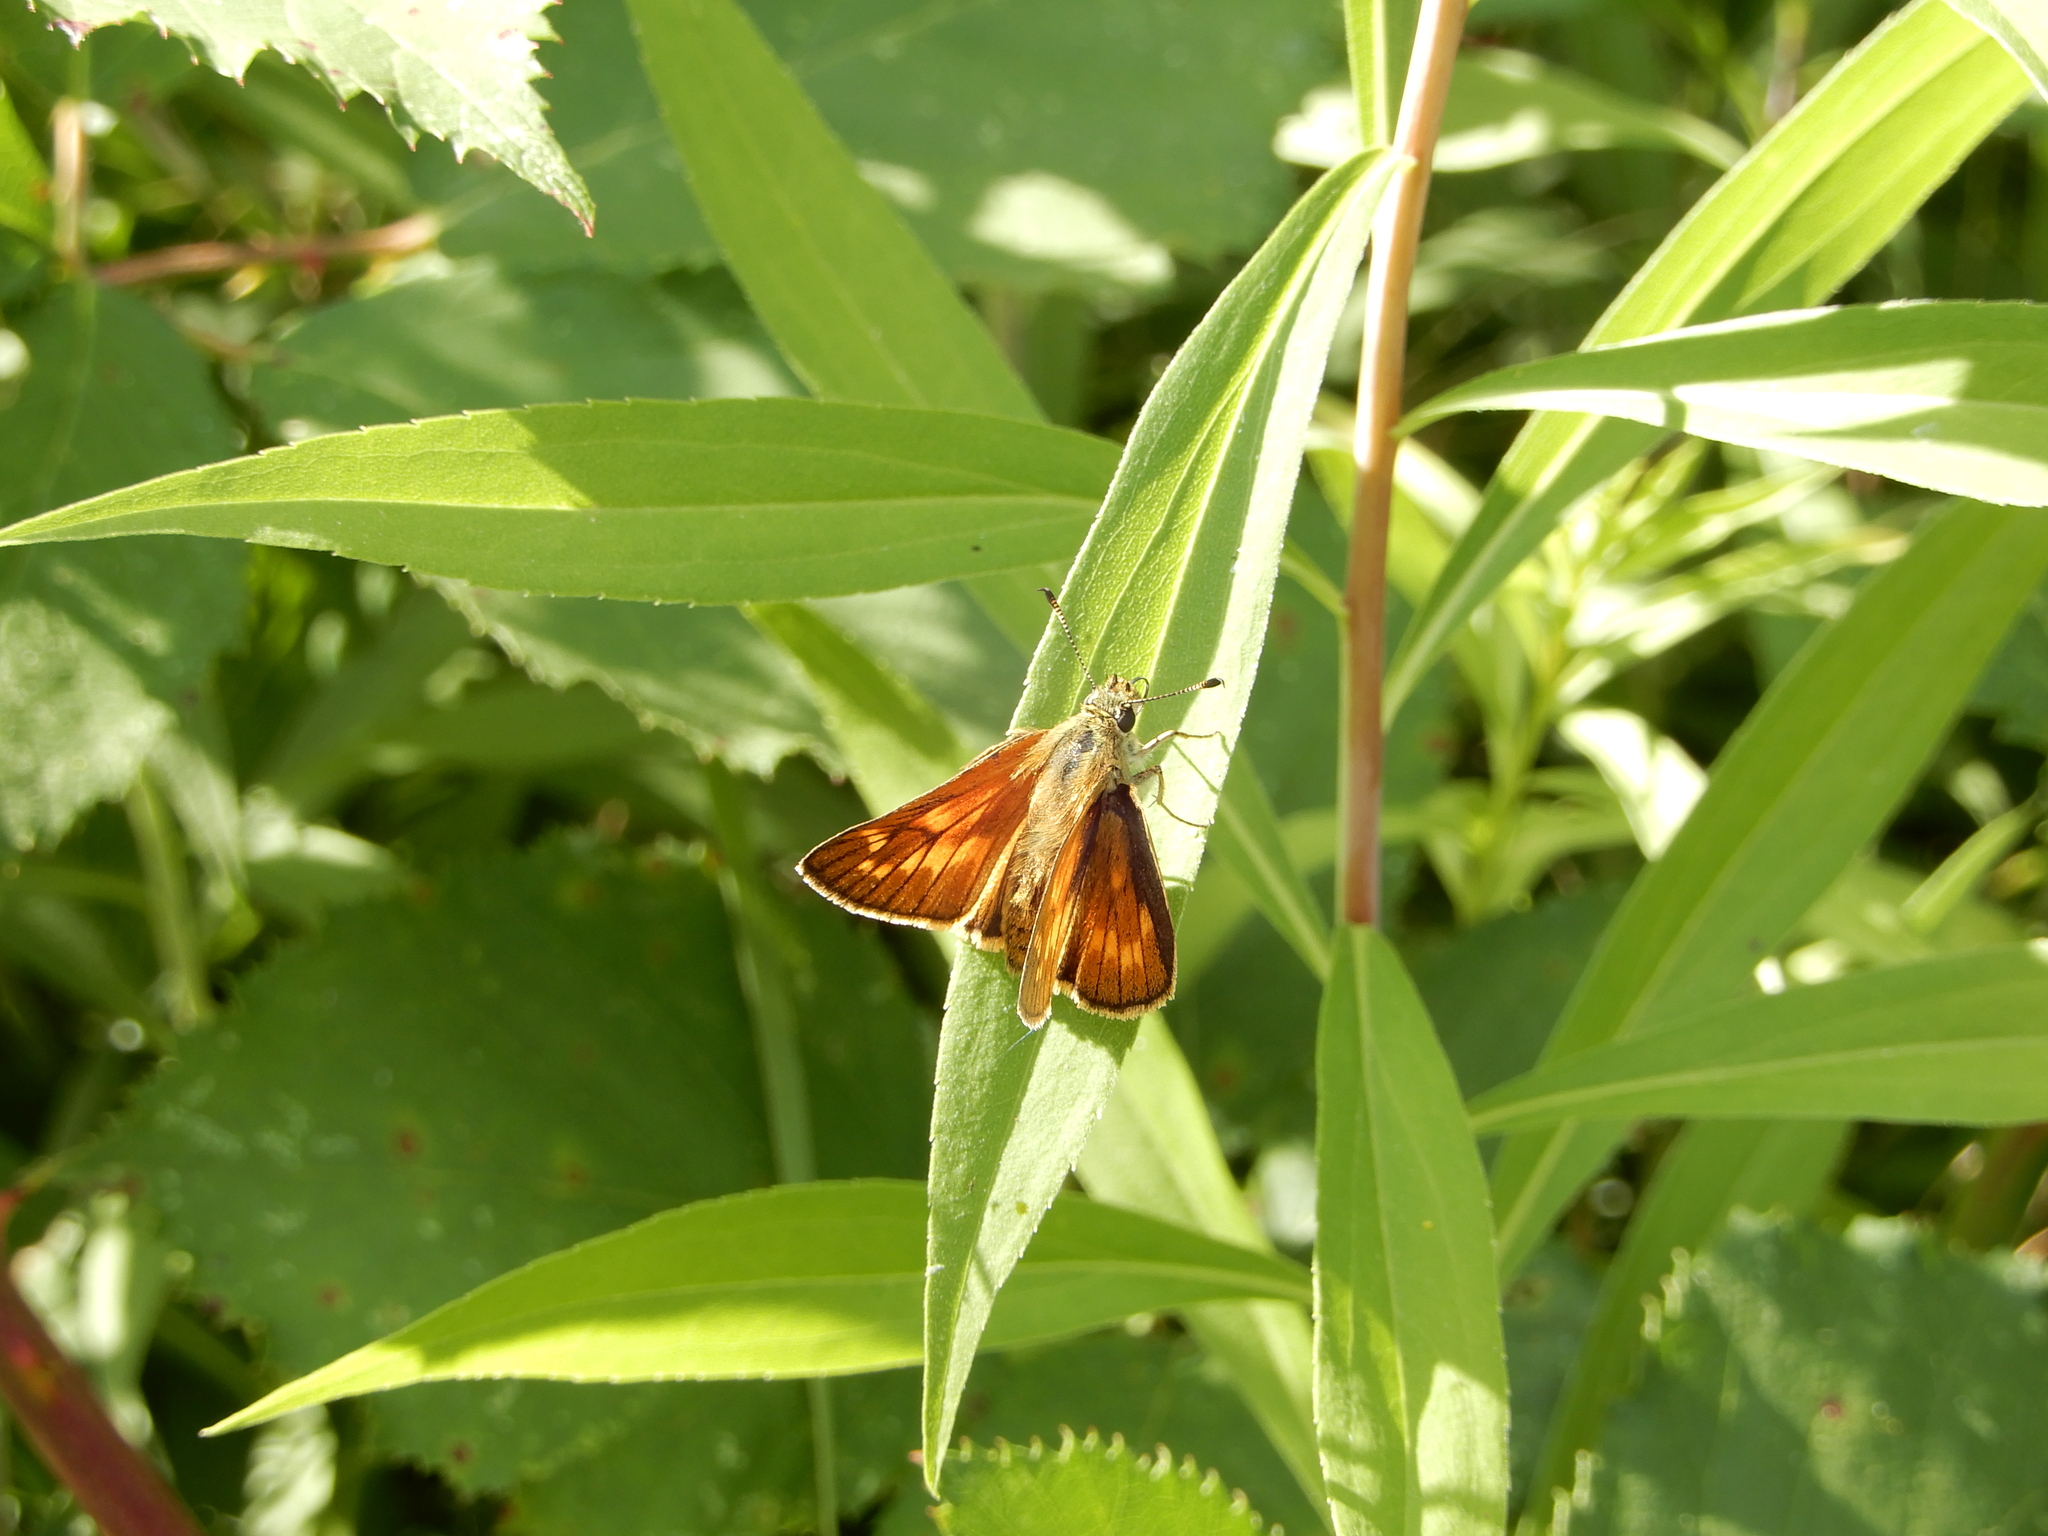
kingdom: Animalia
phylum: Arthropoda
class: Insecta
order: Lepidoptera
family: Hesperiidae
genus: Ochlodes
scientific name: Ochlodes venata
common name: Large skipper
